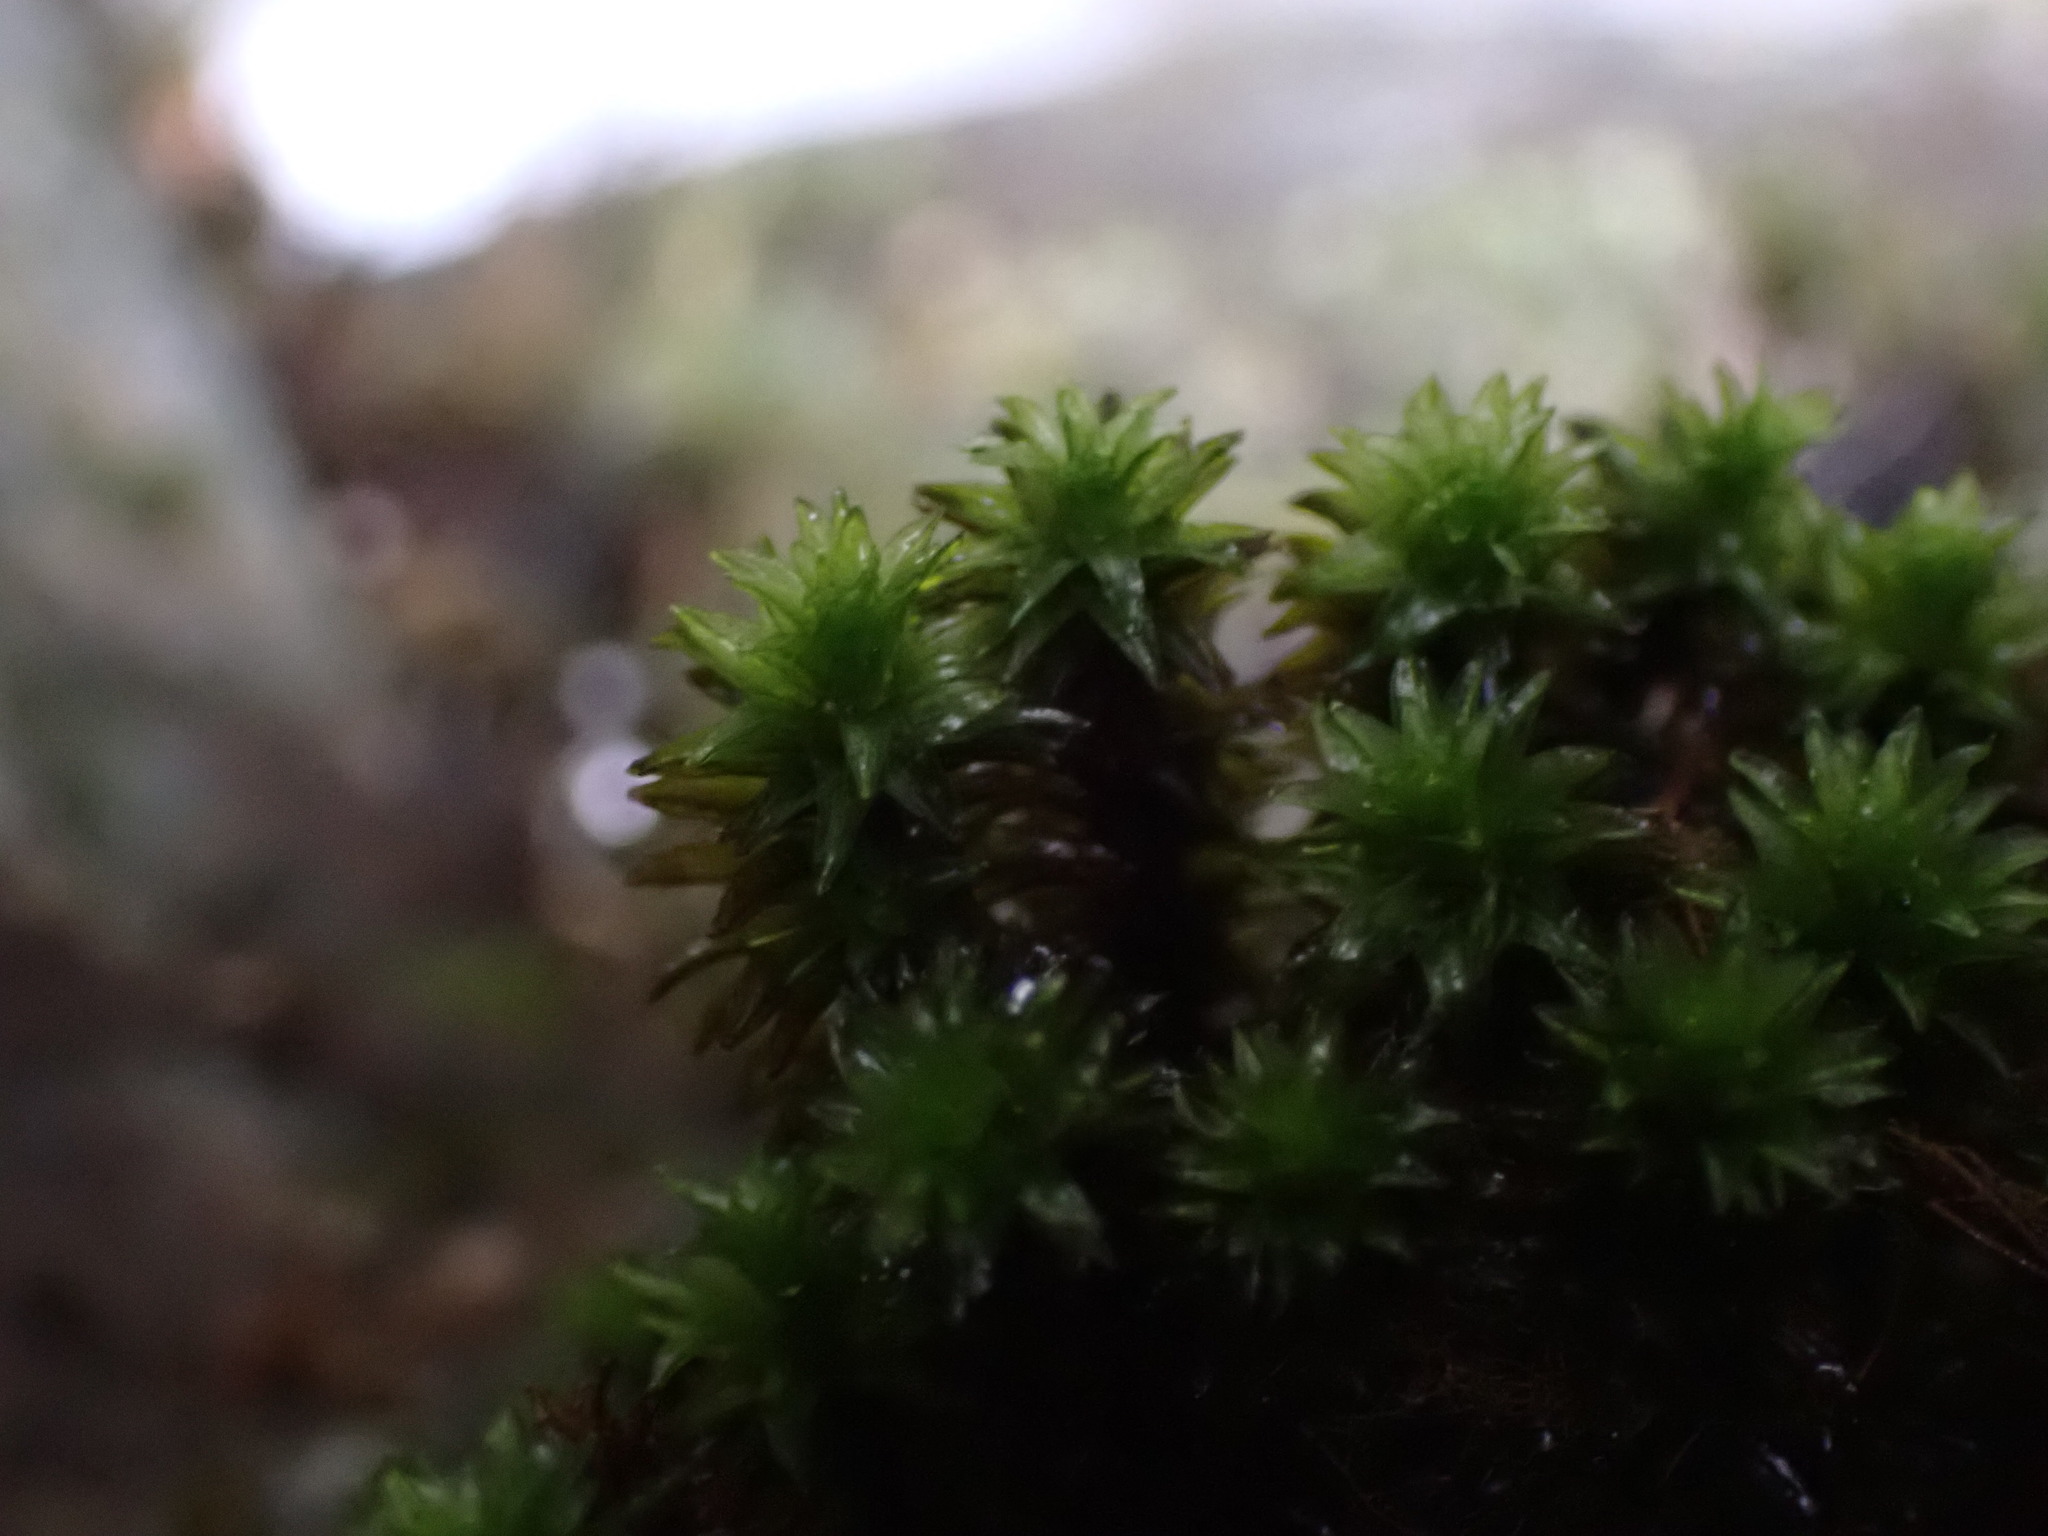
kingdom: Plantae
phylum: Bryophyta
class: Bryopsida
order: Scouleriales
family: Scouleriaceae
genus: Scouleria
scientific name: Scouleria aquatica
